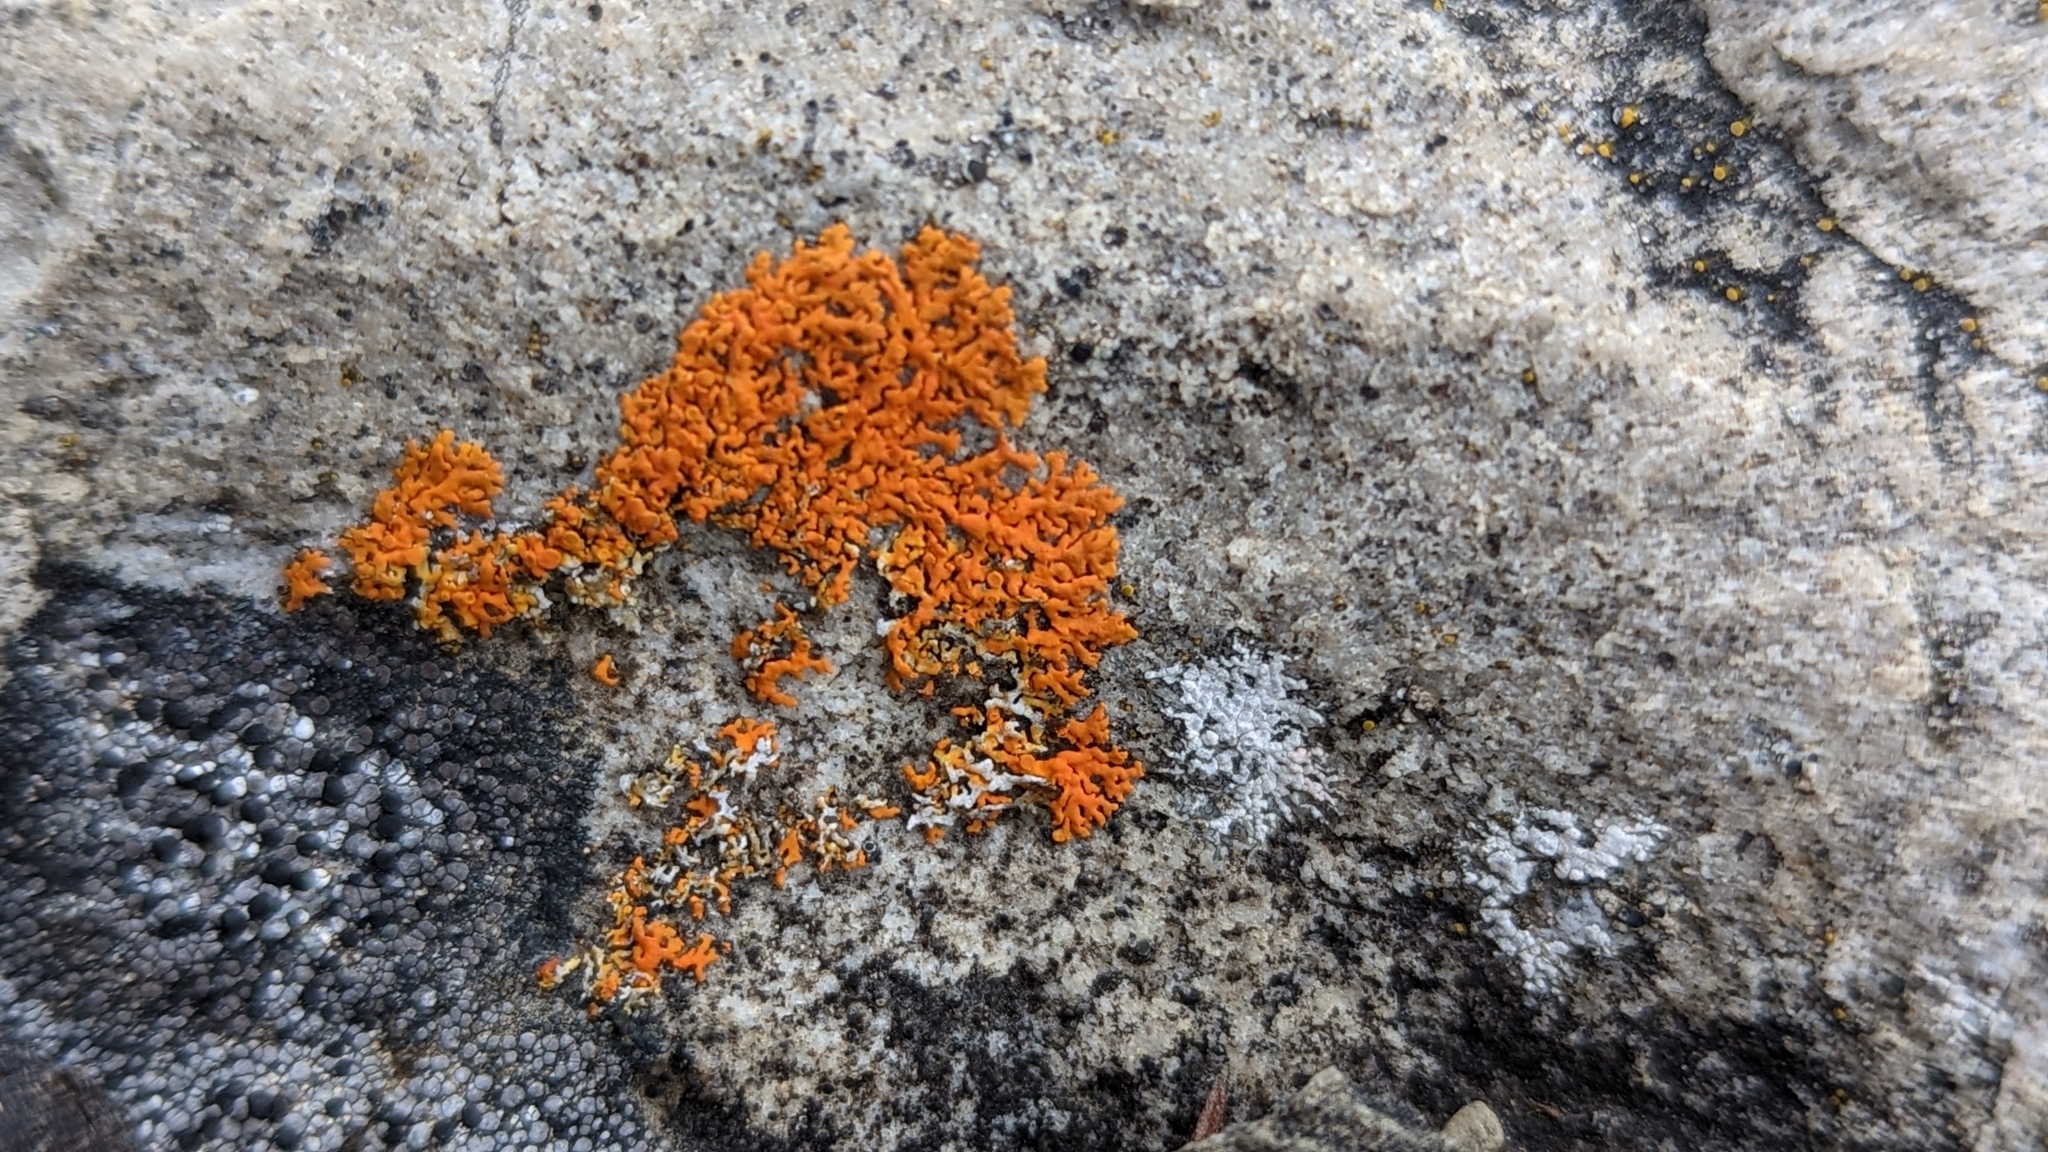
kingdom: Fungi
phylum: Ascomycota
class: Lecanoromycetes
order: Teloschistales
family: Teloschistaceae
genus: Xanthoria
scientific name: Xanthoria elegans
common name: Elegant sunburst lichen
